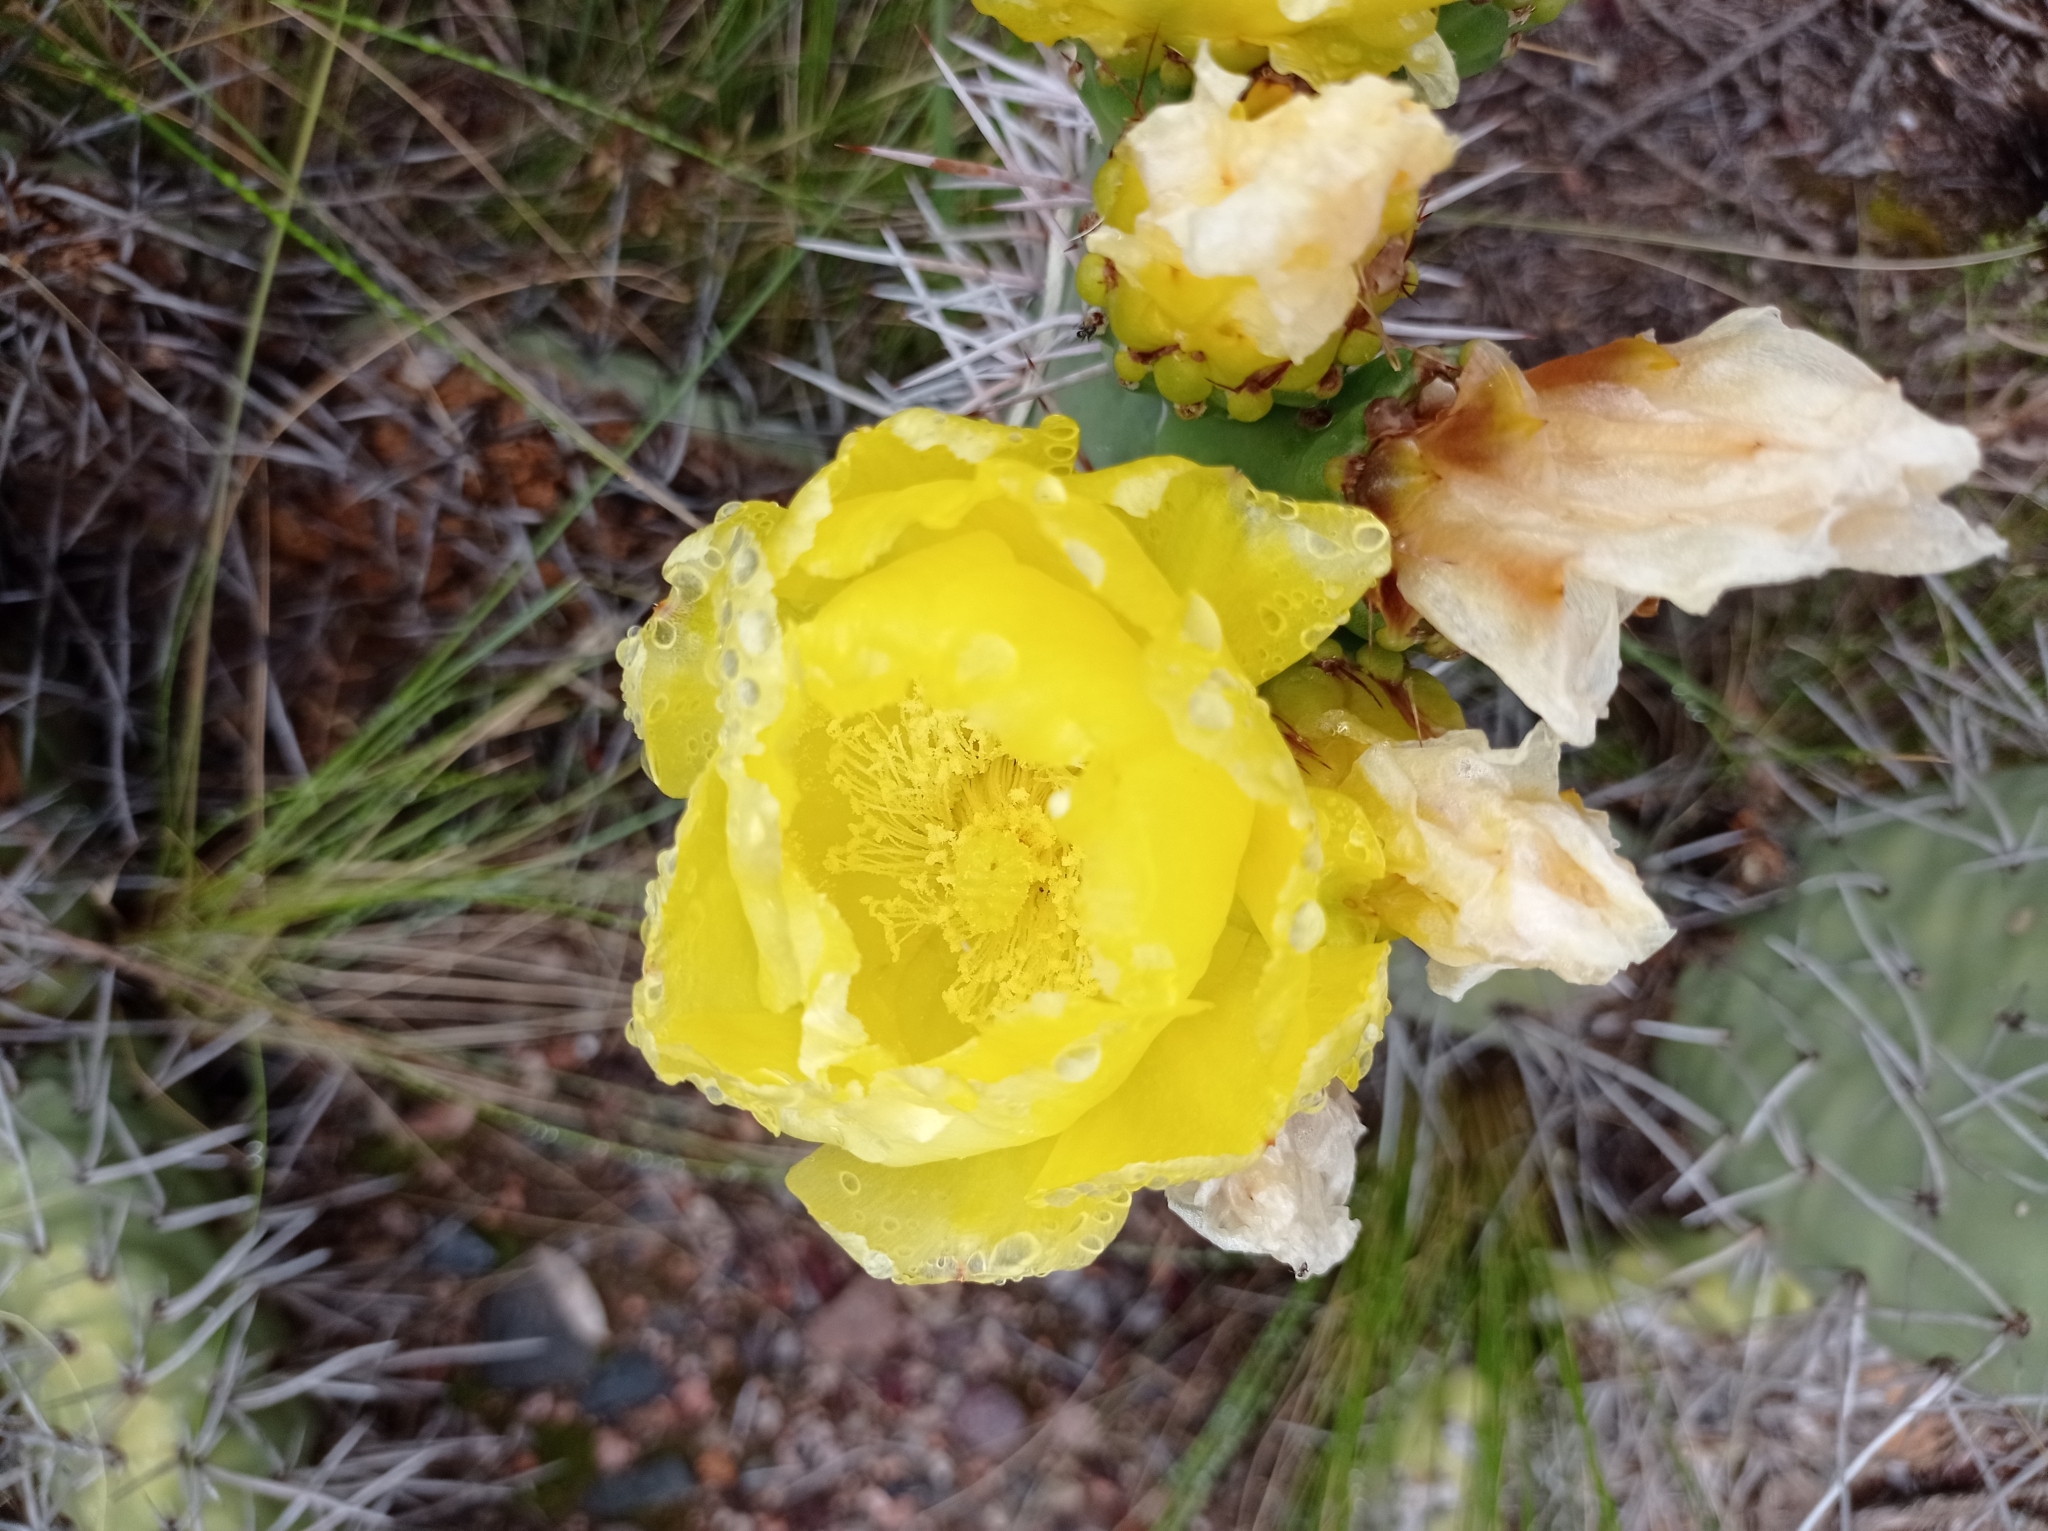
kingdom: Plantae
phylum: Tracheophyta
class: Magnoliopsida
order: Caryophyllales
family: Cactaceae
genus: Opuntia
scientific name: Opuntia sulphurea
